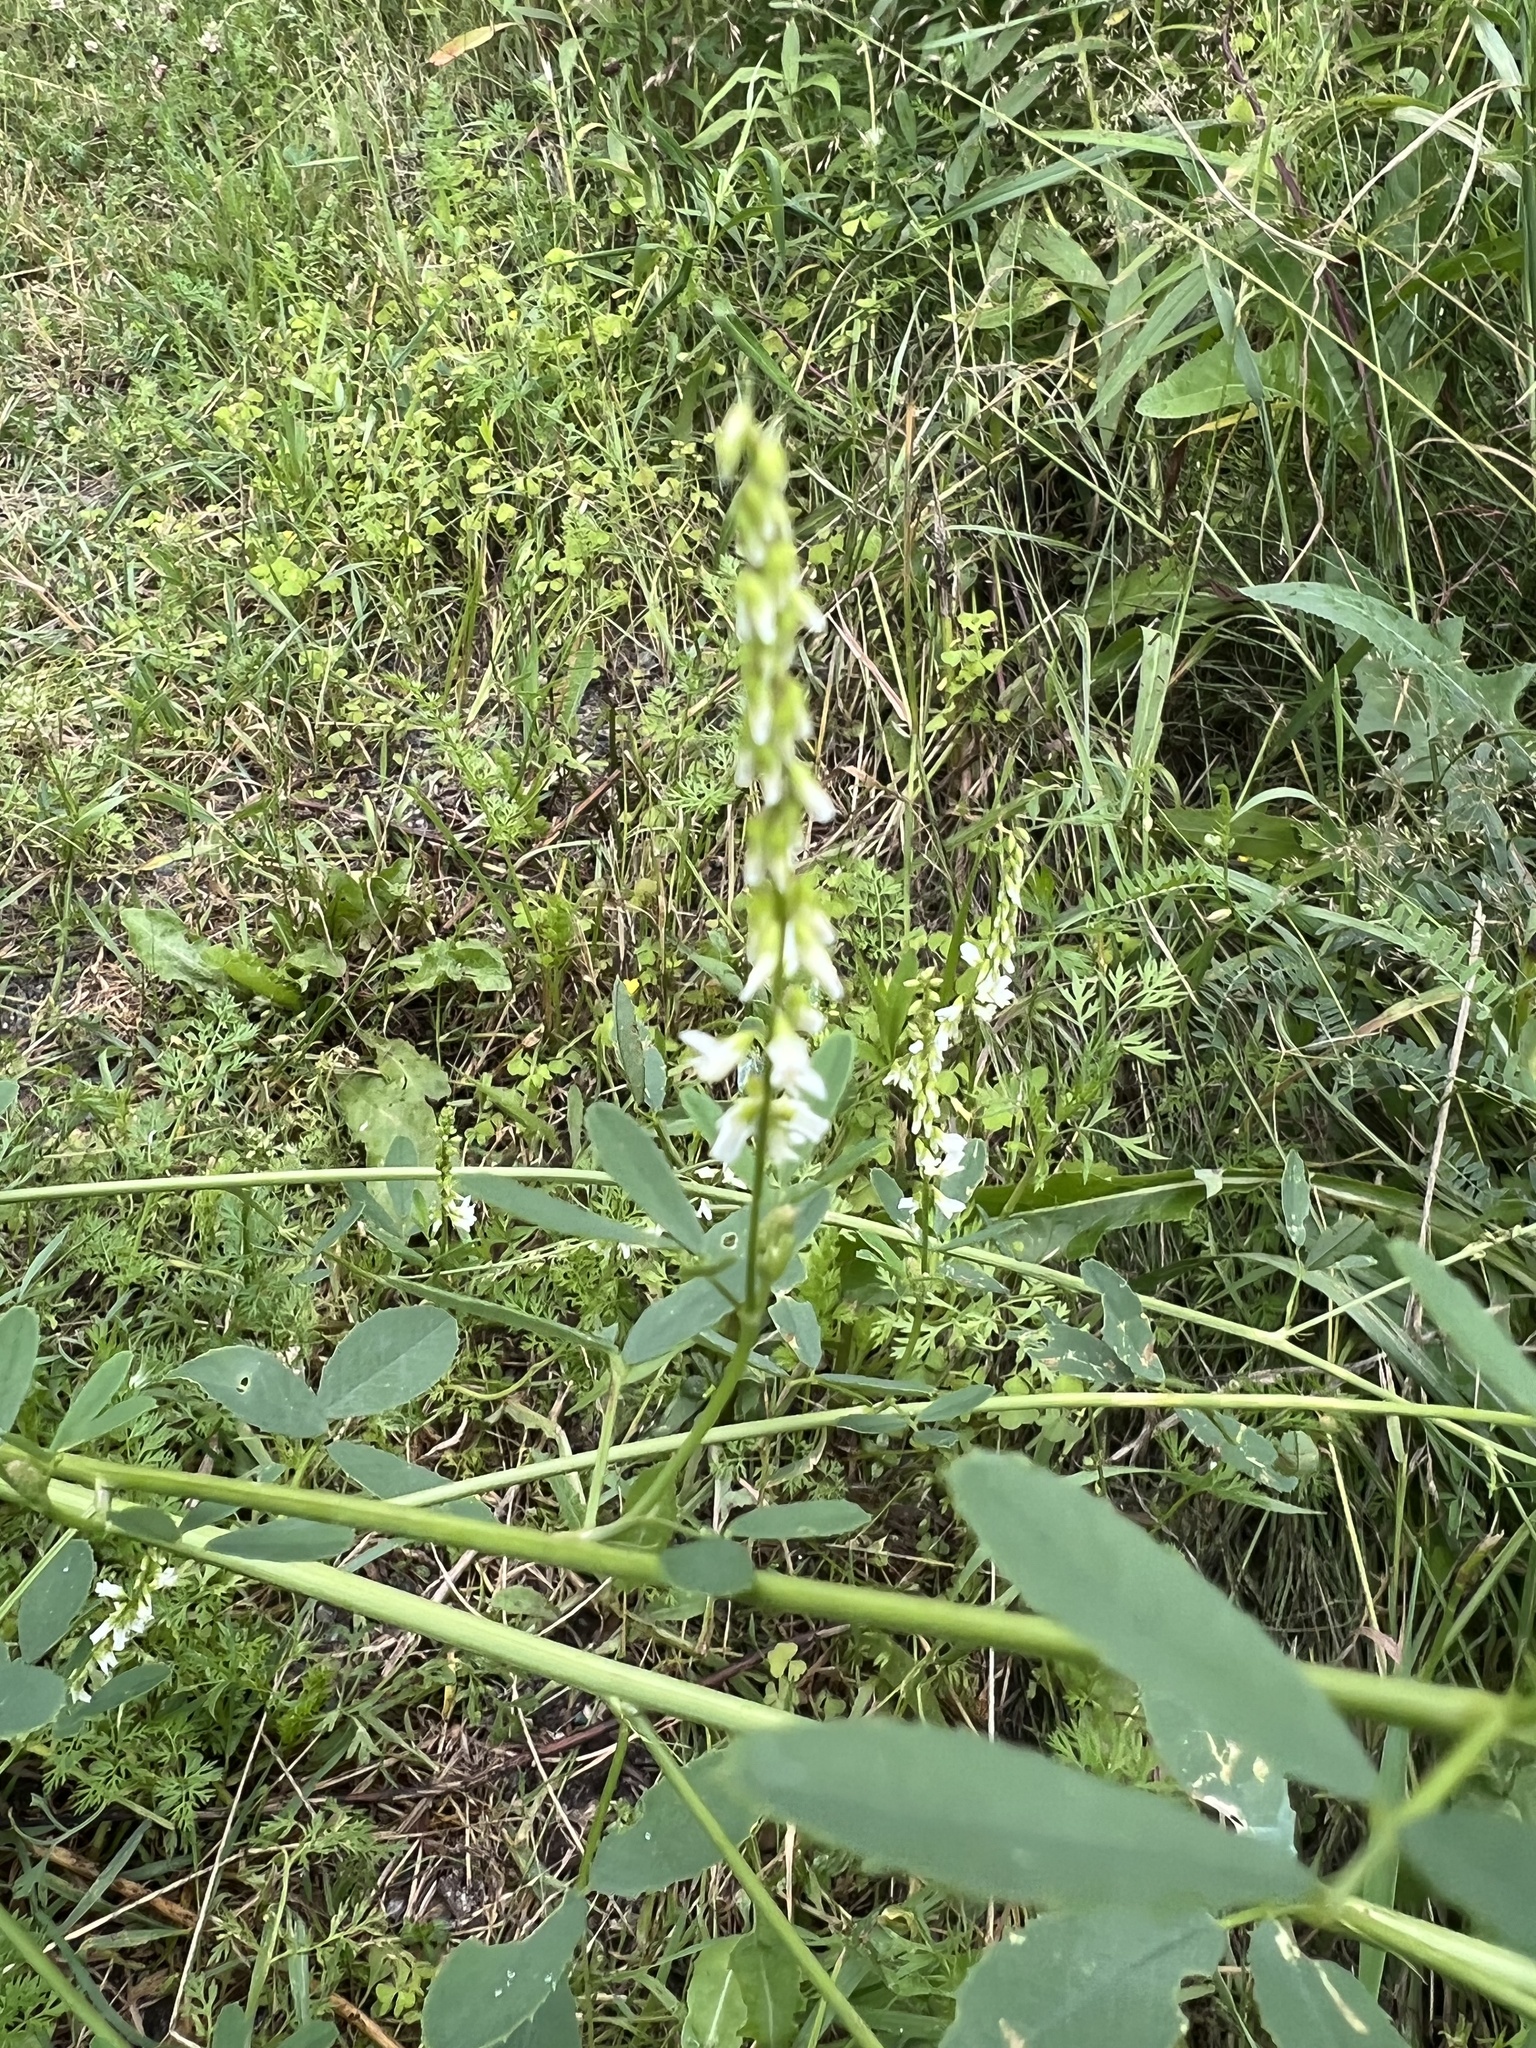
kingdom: Plantae
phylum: Tracheophyta
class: Magnoliopsida
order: Fabales
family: Fabaceae
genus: Melilotus
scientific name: Melilotus albus
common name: White melilot
